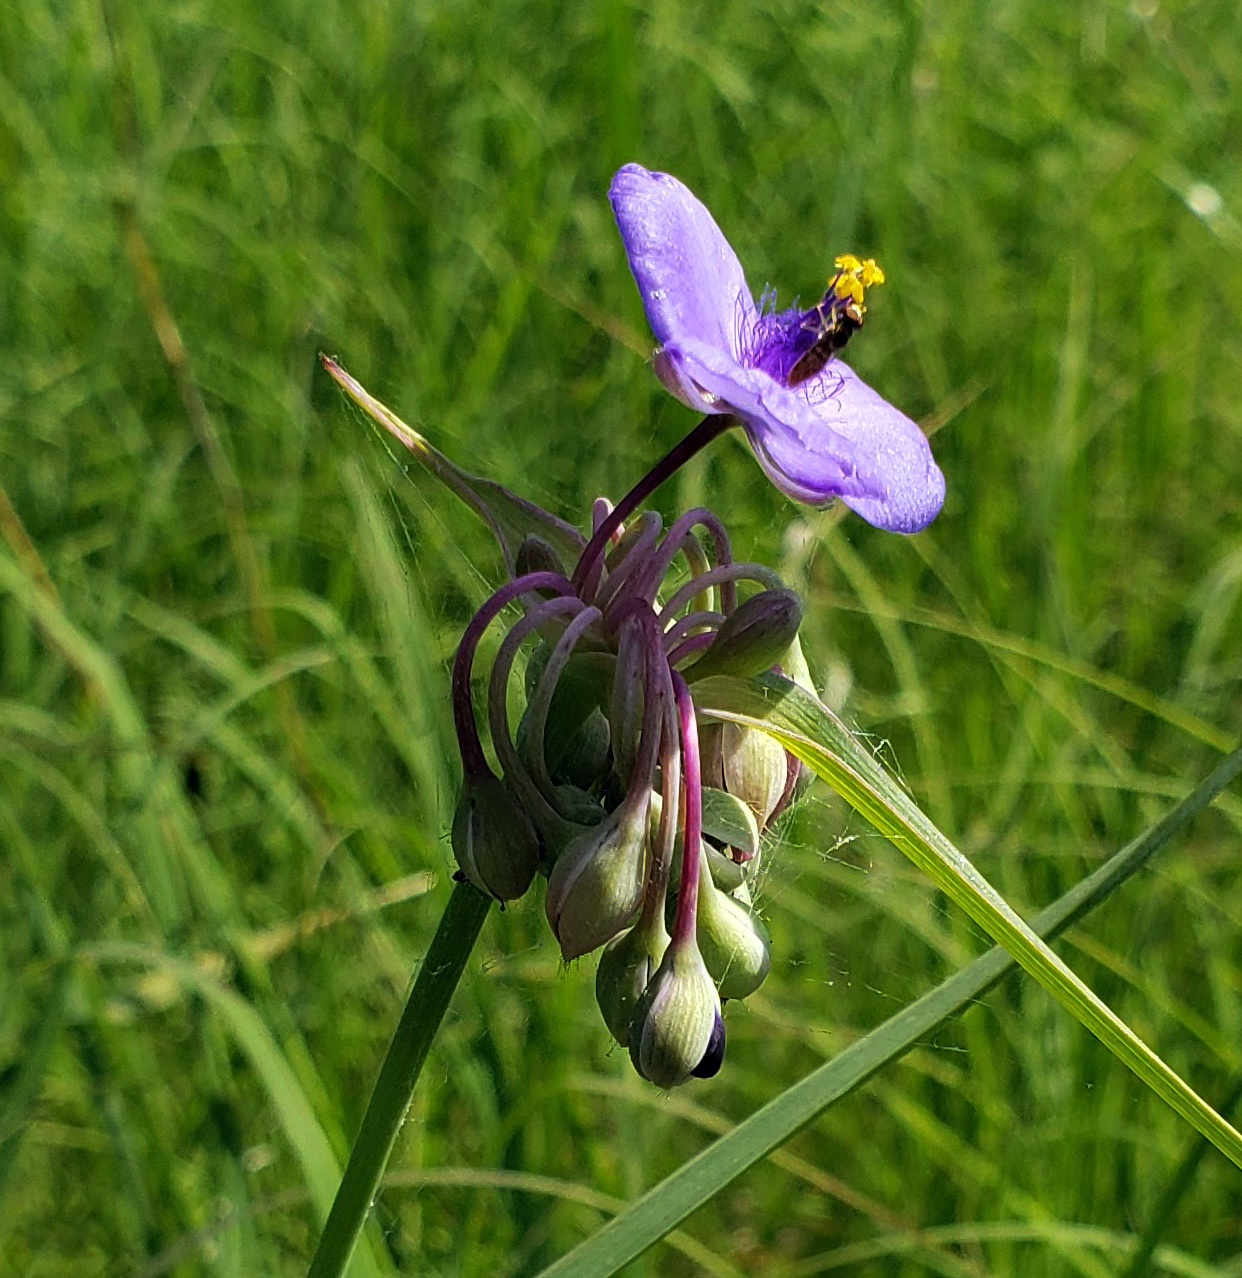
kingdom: Plantae
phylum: Tracheophyta
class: Liliopsida
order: Commelinales
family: Commelinaceae
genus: Tradescantia
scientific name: Tradescantia ohiensis
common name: Ohio spiderwort
